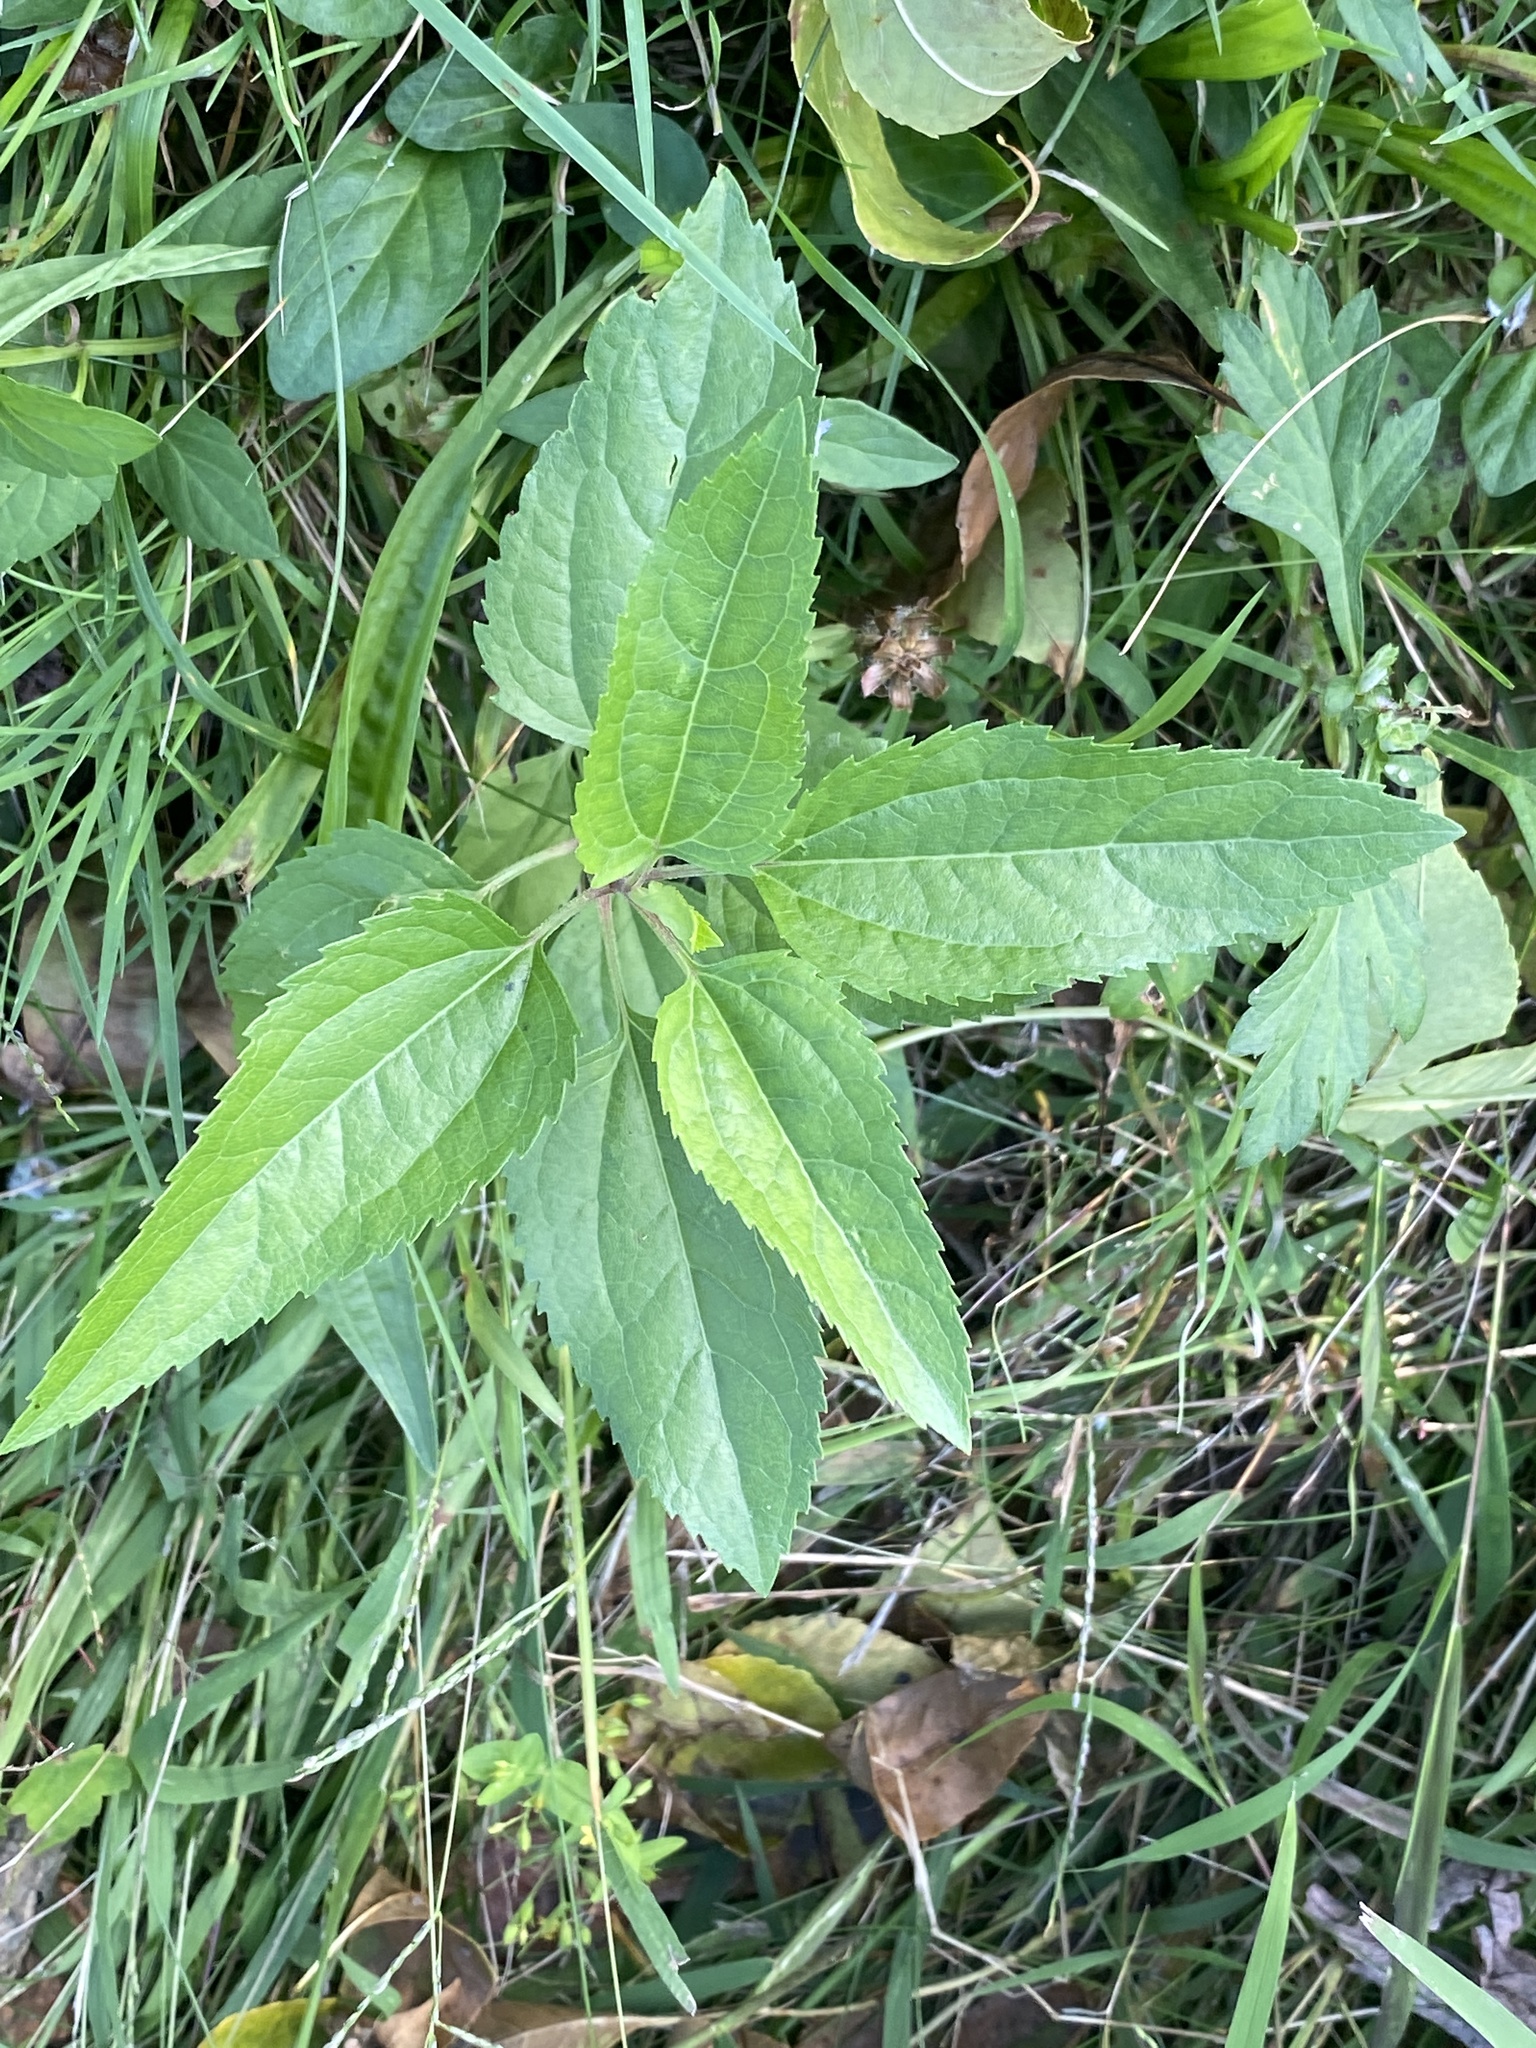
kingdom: Plantae
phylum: Tracheophyta
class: Magnoliopsida
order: Asterales
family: Asteraceae
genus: Eupatorium
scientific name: Eupatorium serotinum
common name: Late boneset
